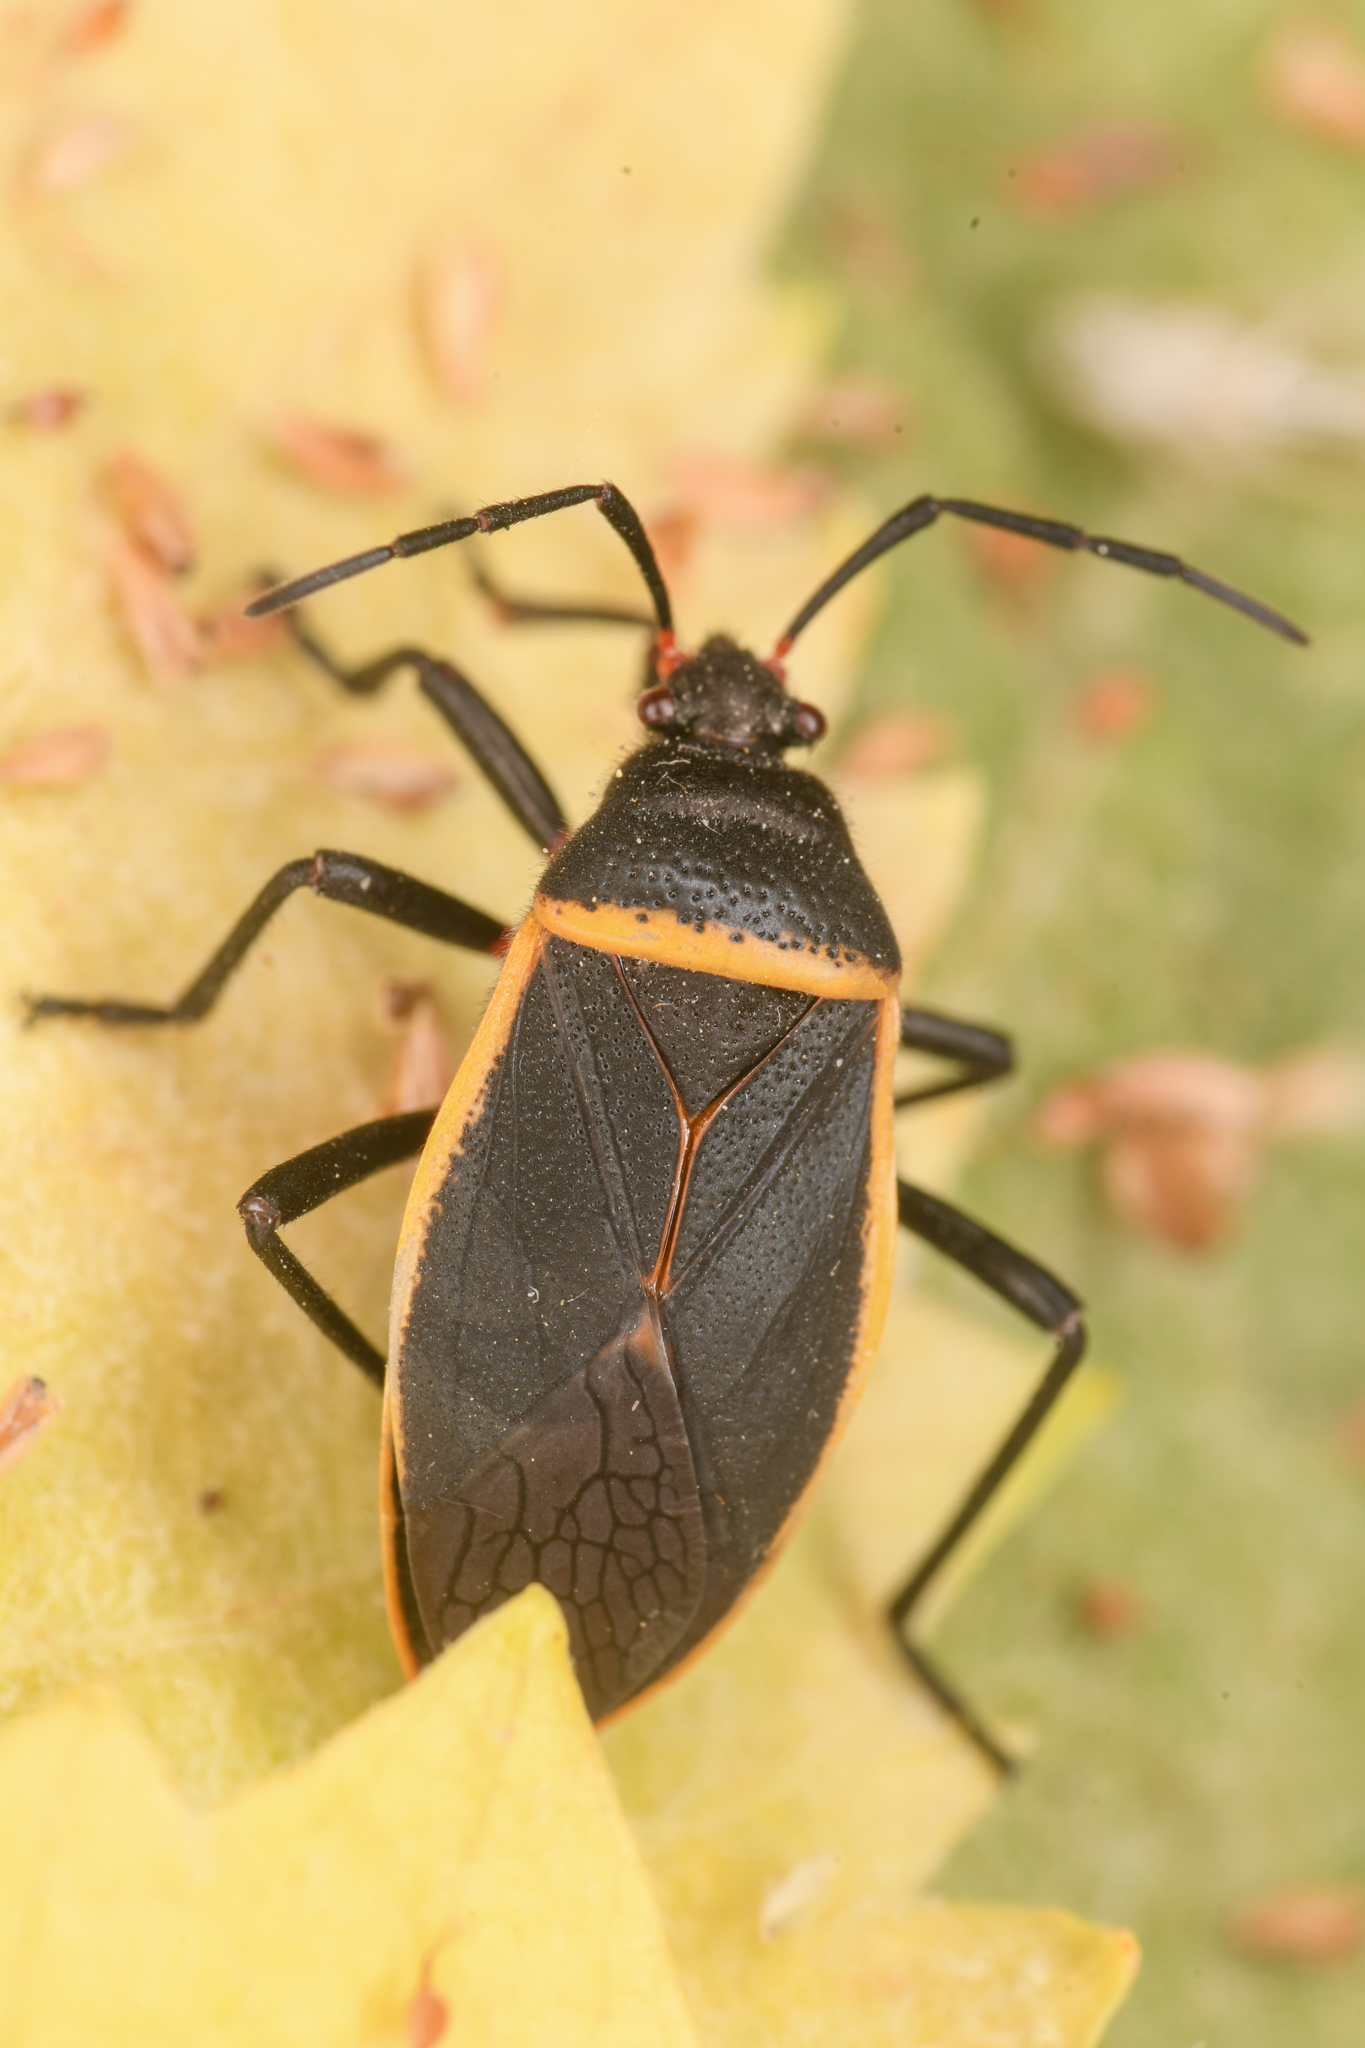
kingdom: Animalia
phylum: Arthropoda
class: Insecta
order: Hemiptera
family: Largidae
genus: Largus
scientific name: Largus californicus
